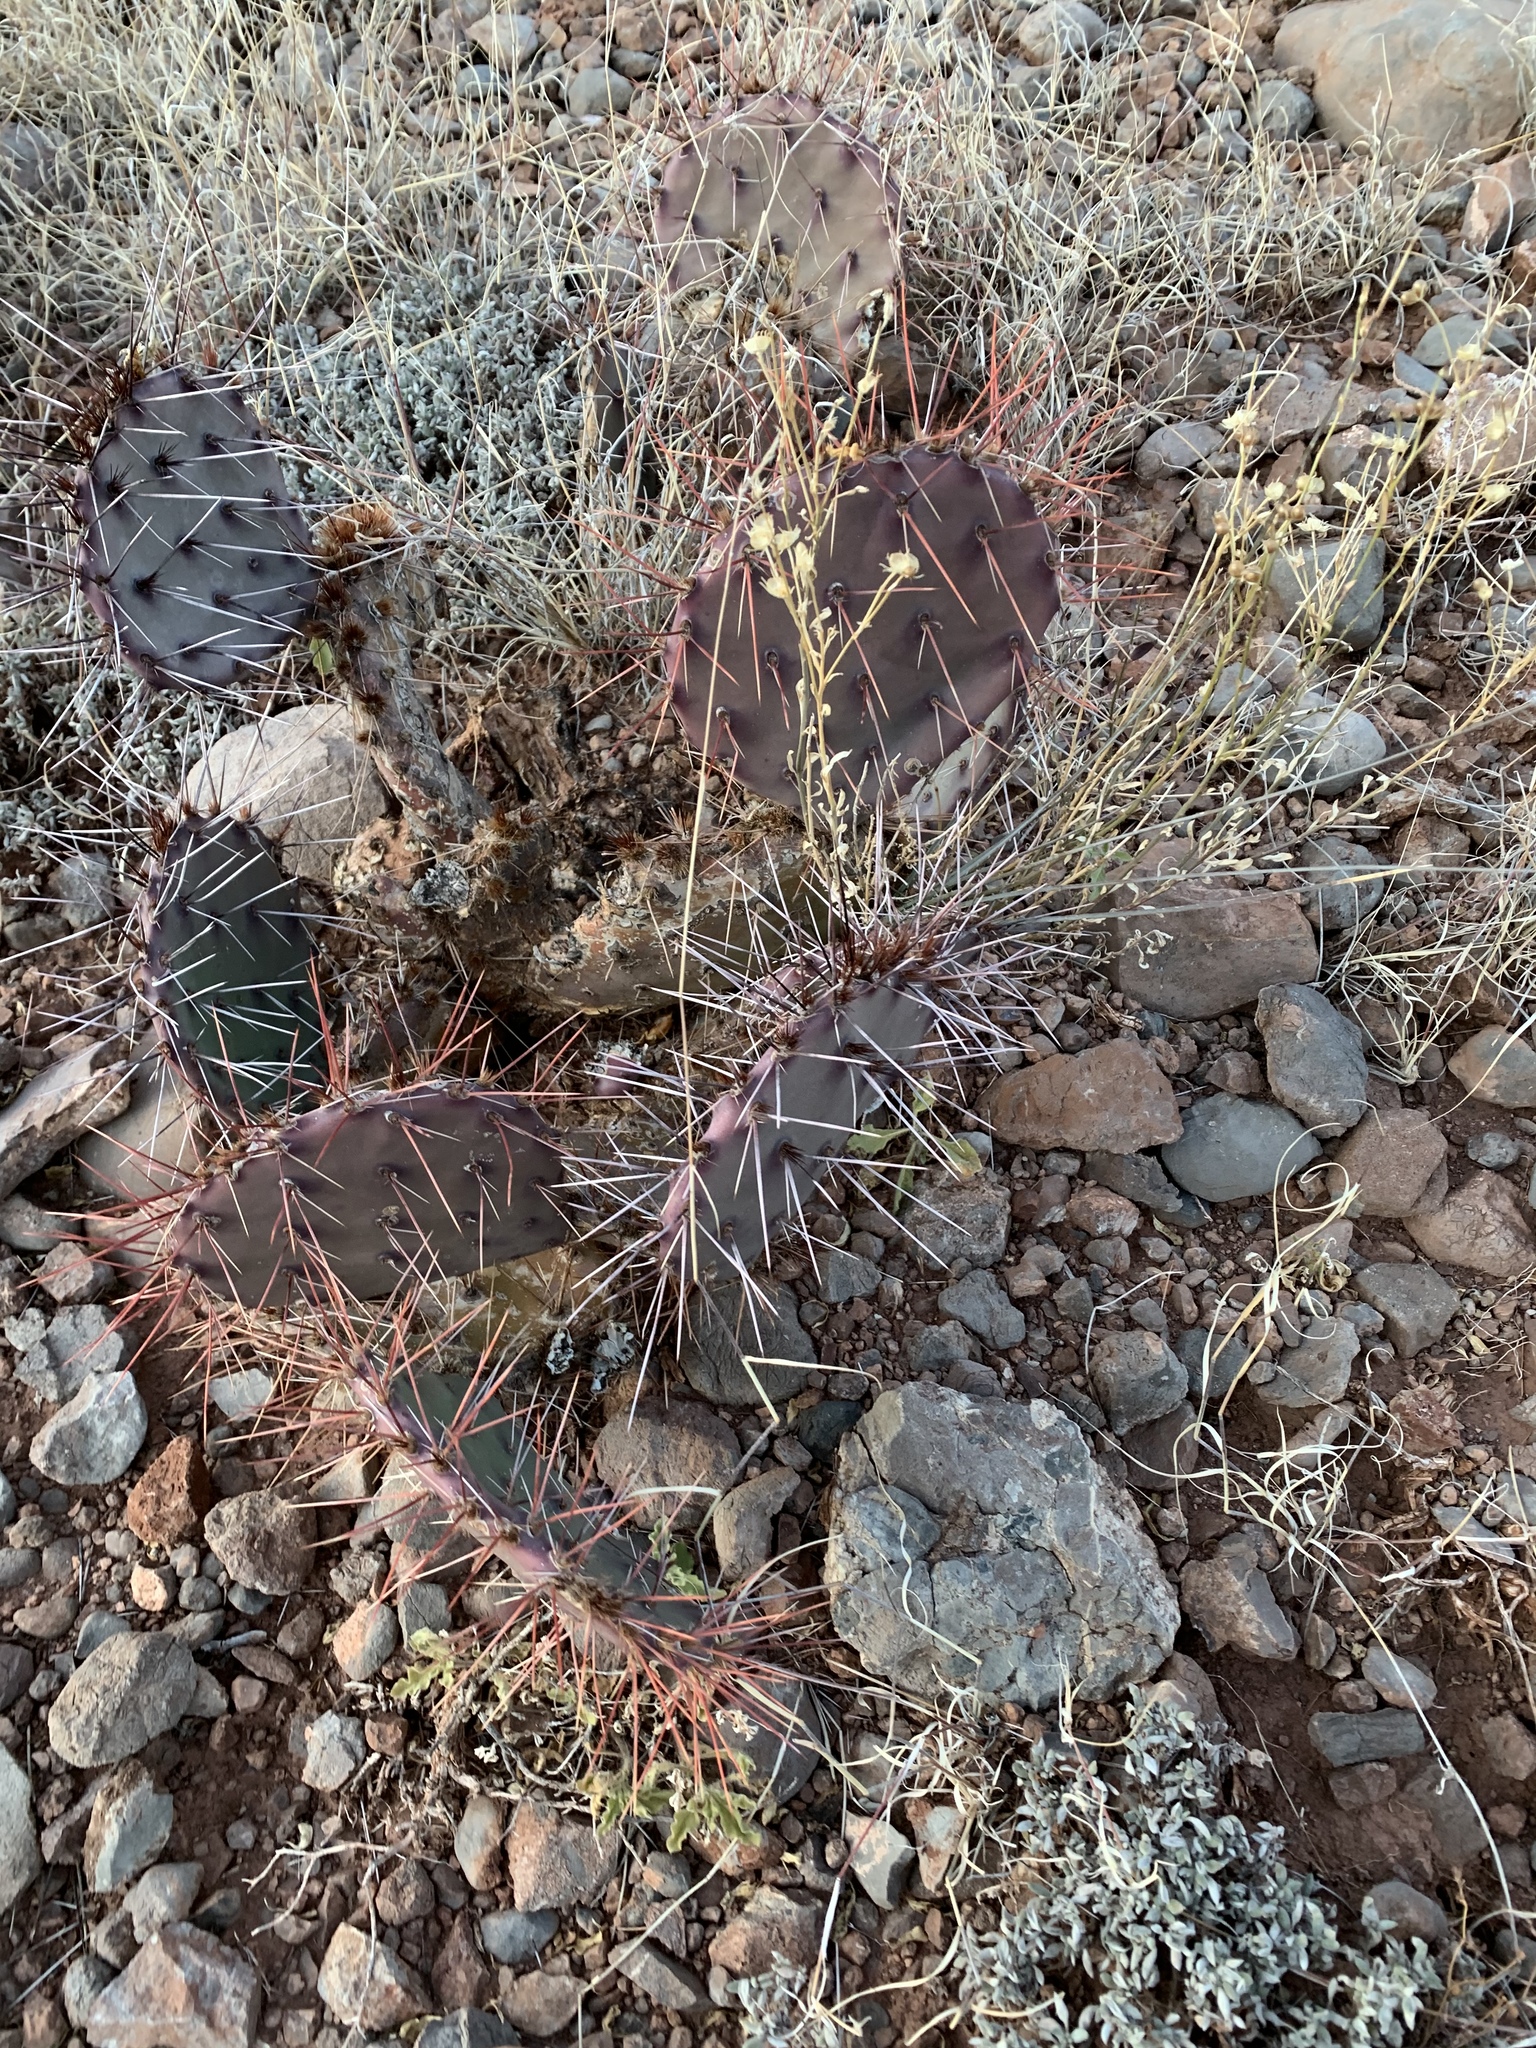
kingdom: Plantae
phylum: Tracheophyta
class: Magnoliopsida
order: Caryophyllales
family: Cactaceae
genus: Opuntia
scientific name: Opuntia macrocentra
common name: Purple prickly-pear
